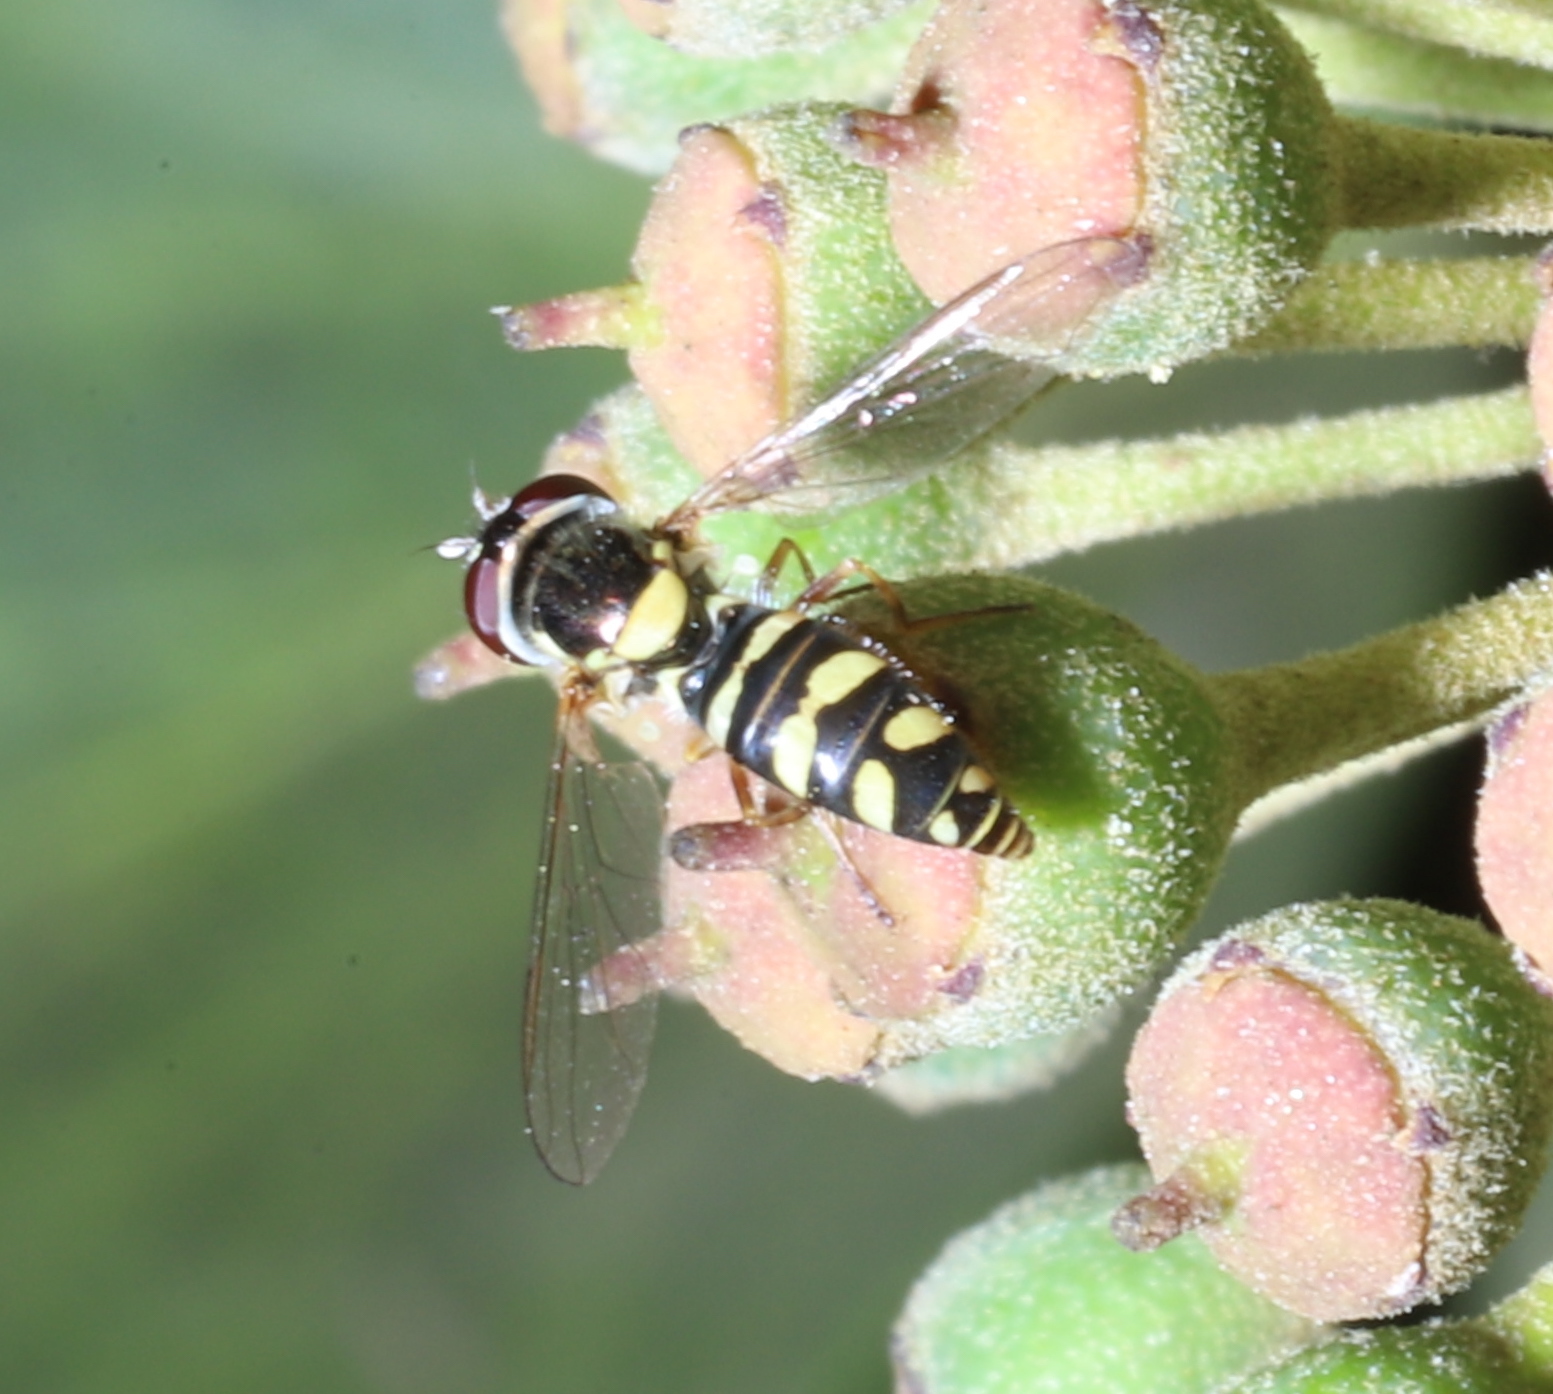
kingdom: Animalia
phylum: Arthropoda
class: Insecta
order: Diptera
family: Syrphidae
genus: Allograpta
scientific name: Allograpta hortensis
